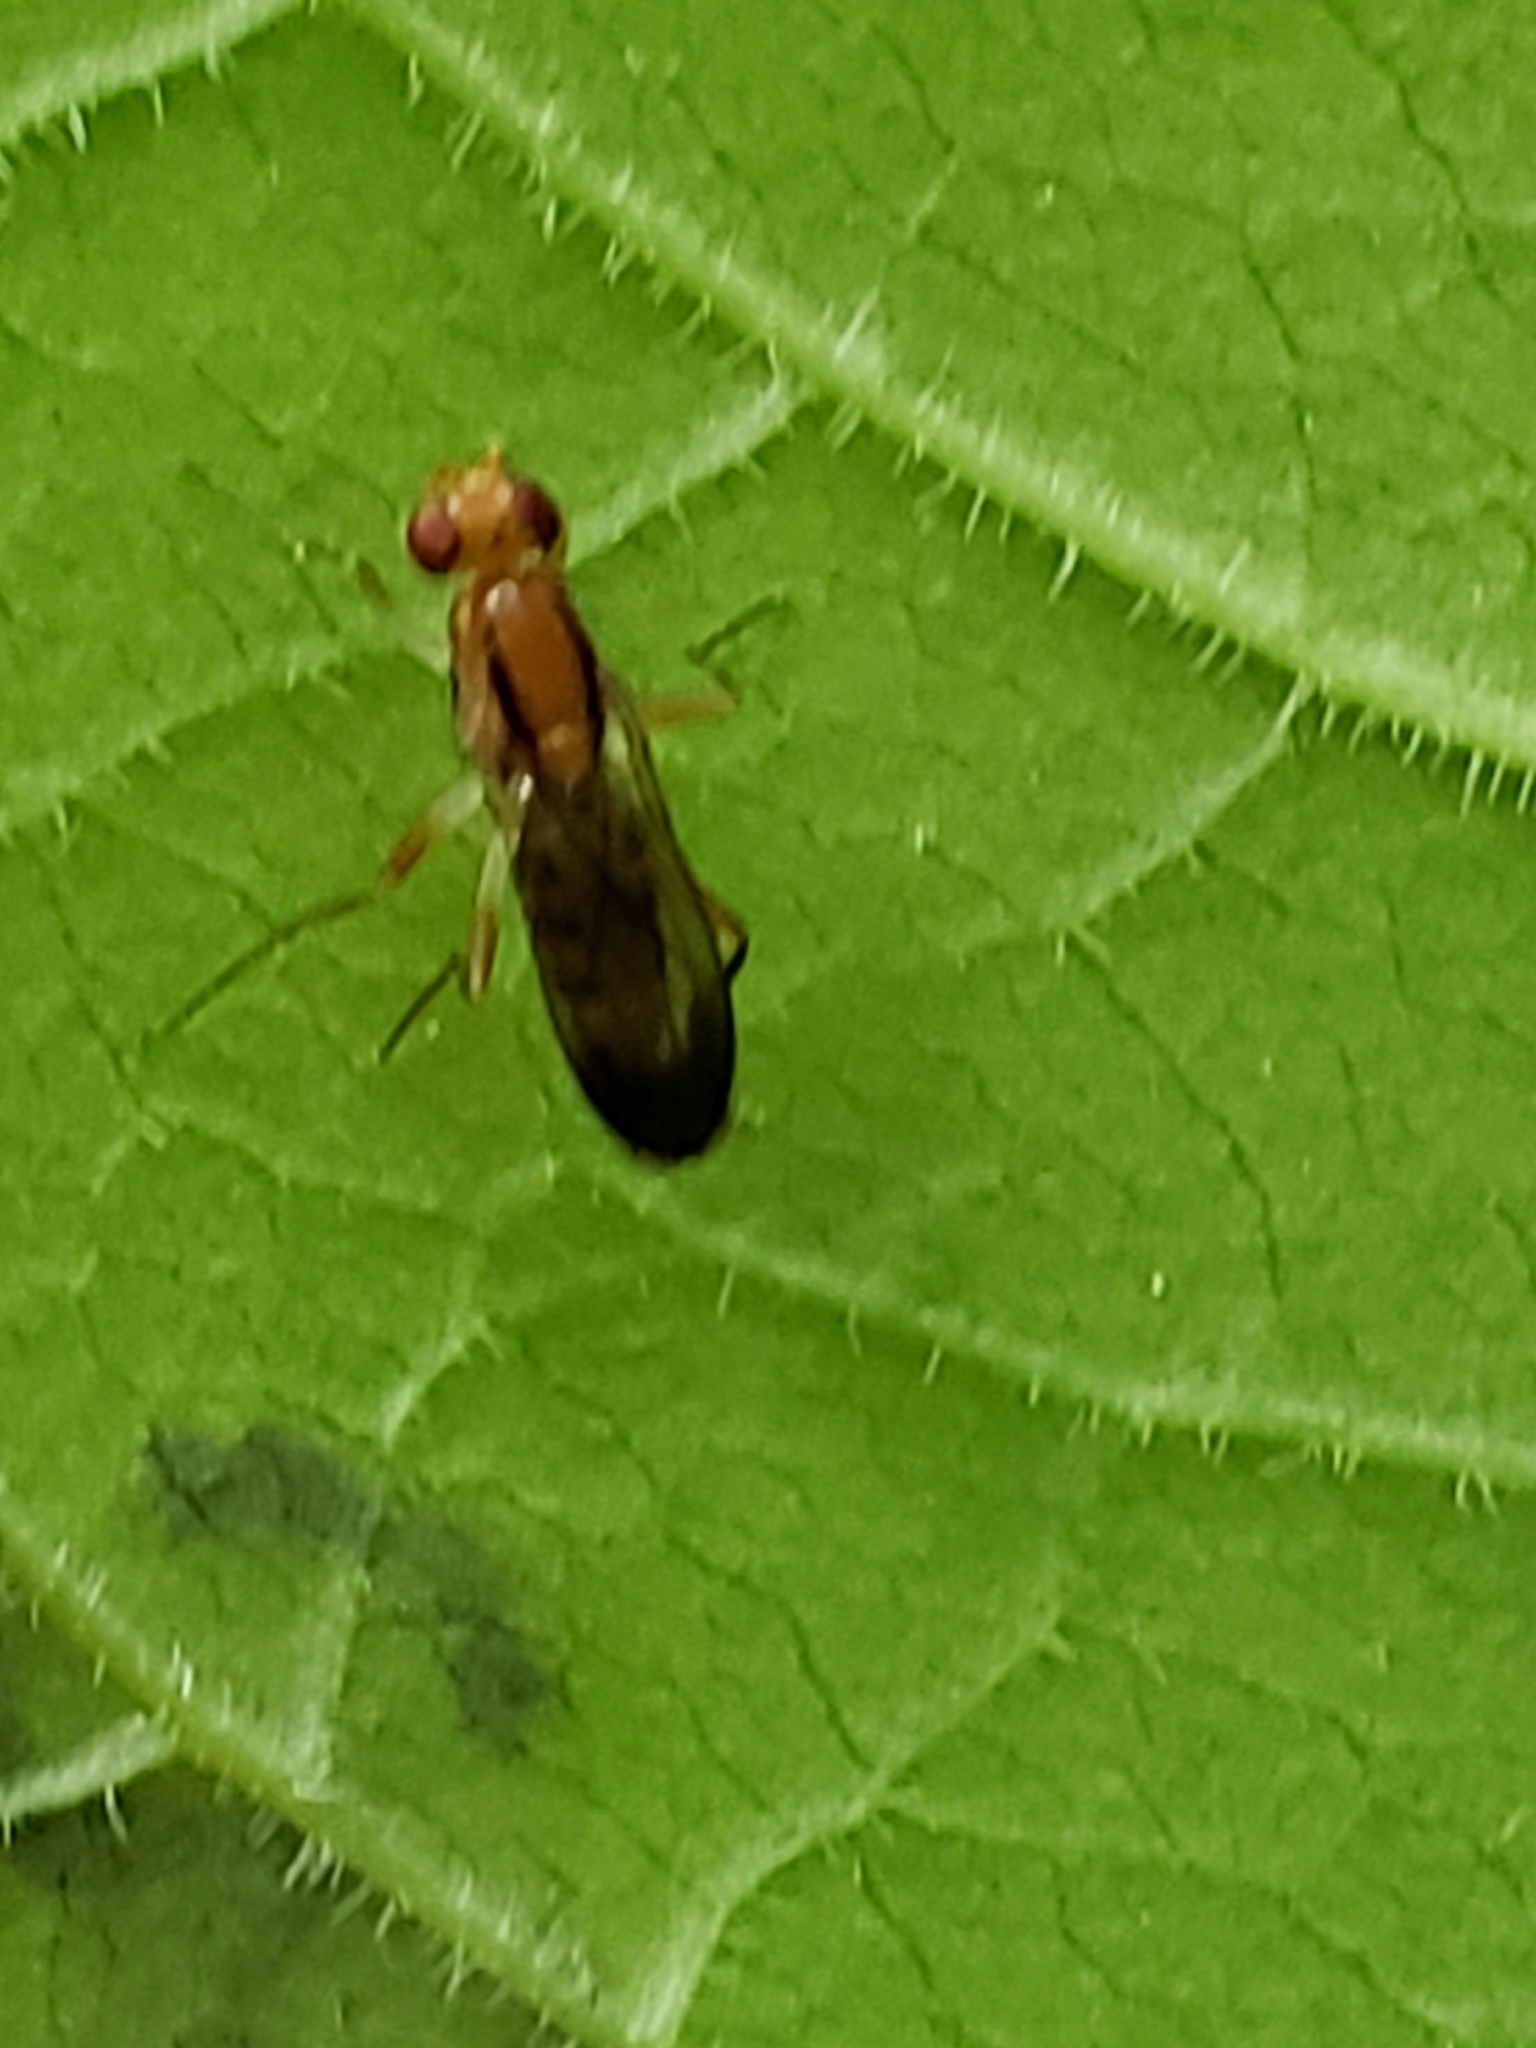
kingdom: Animalia
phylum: Arthropoda
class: Insecta
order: Diptera
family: Clusiidae
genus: Clusia
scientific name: Clusia lateralis
